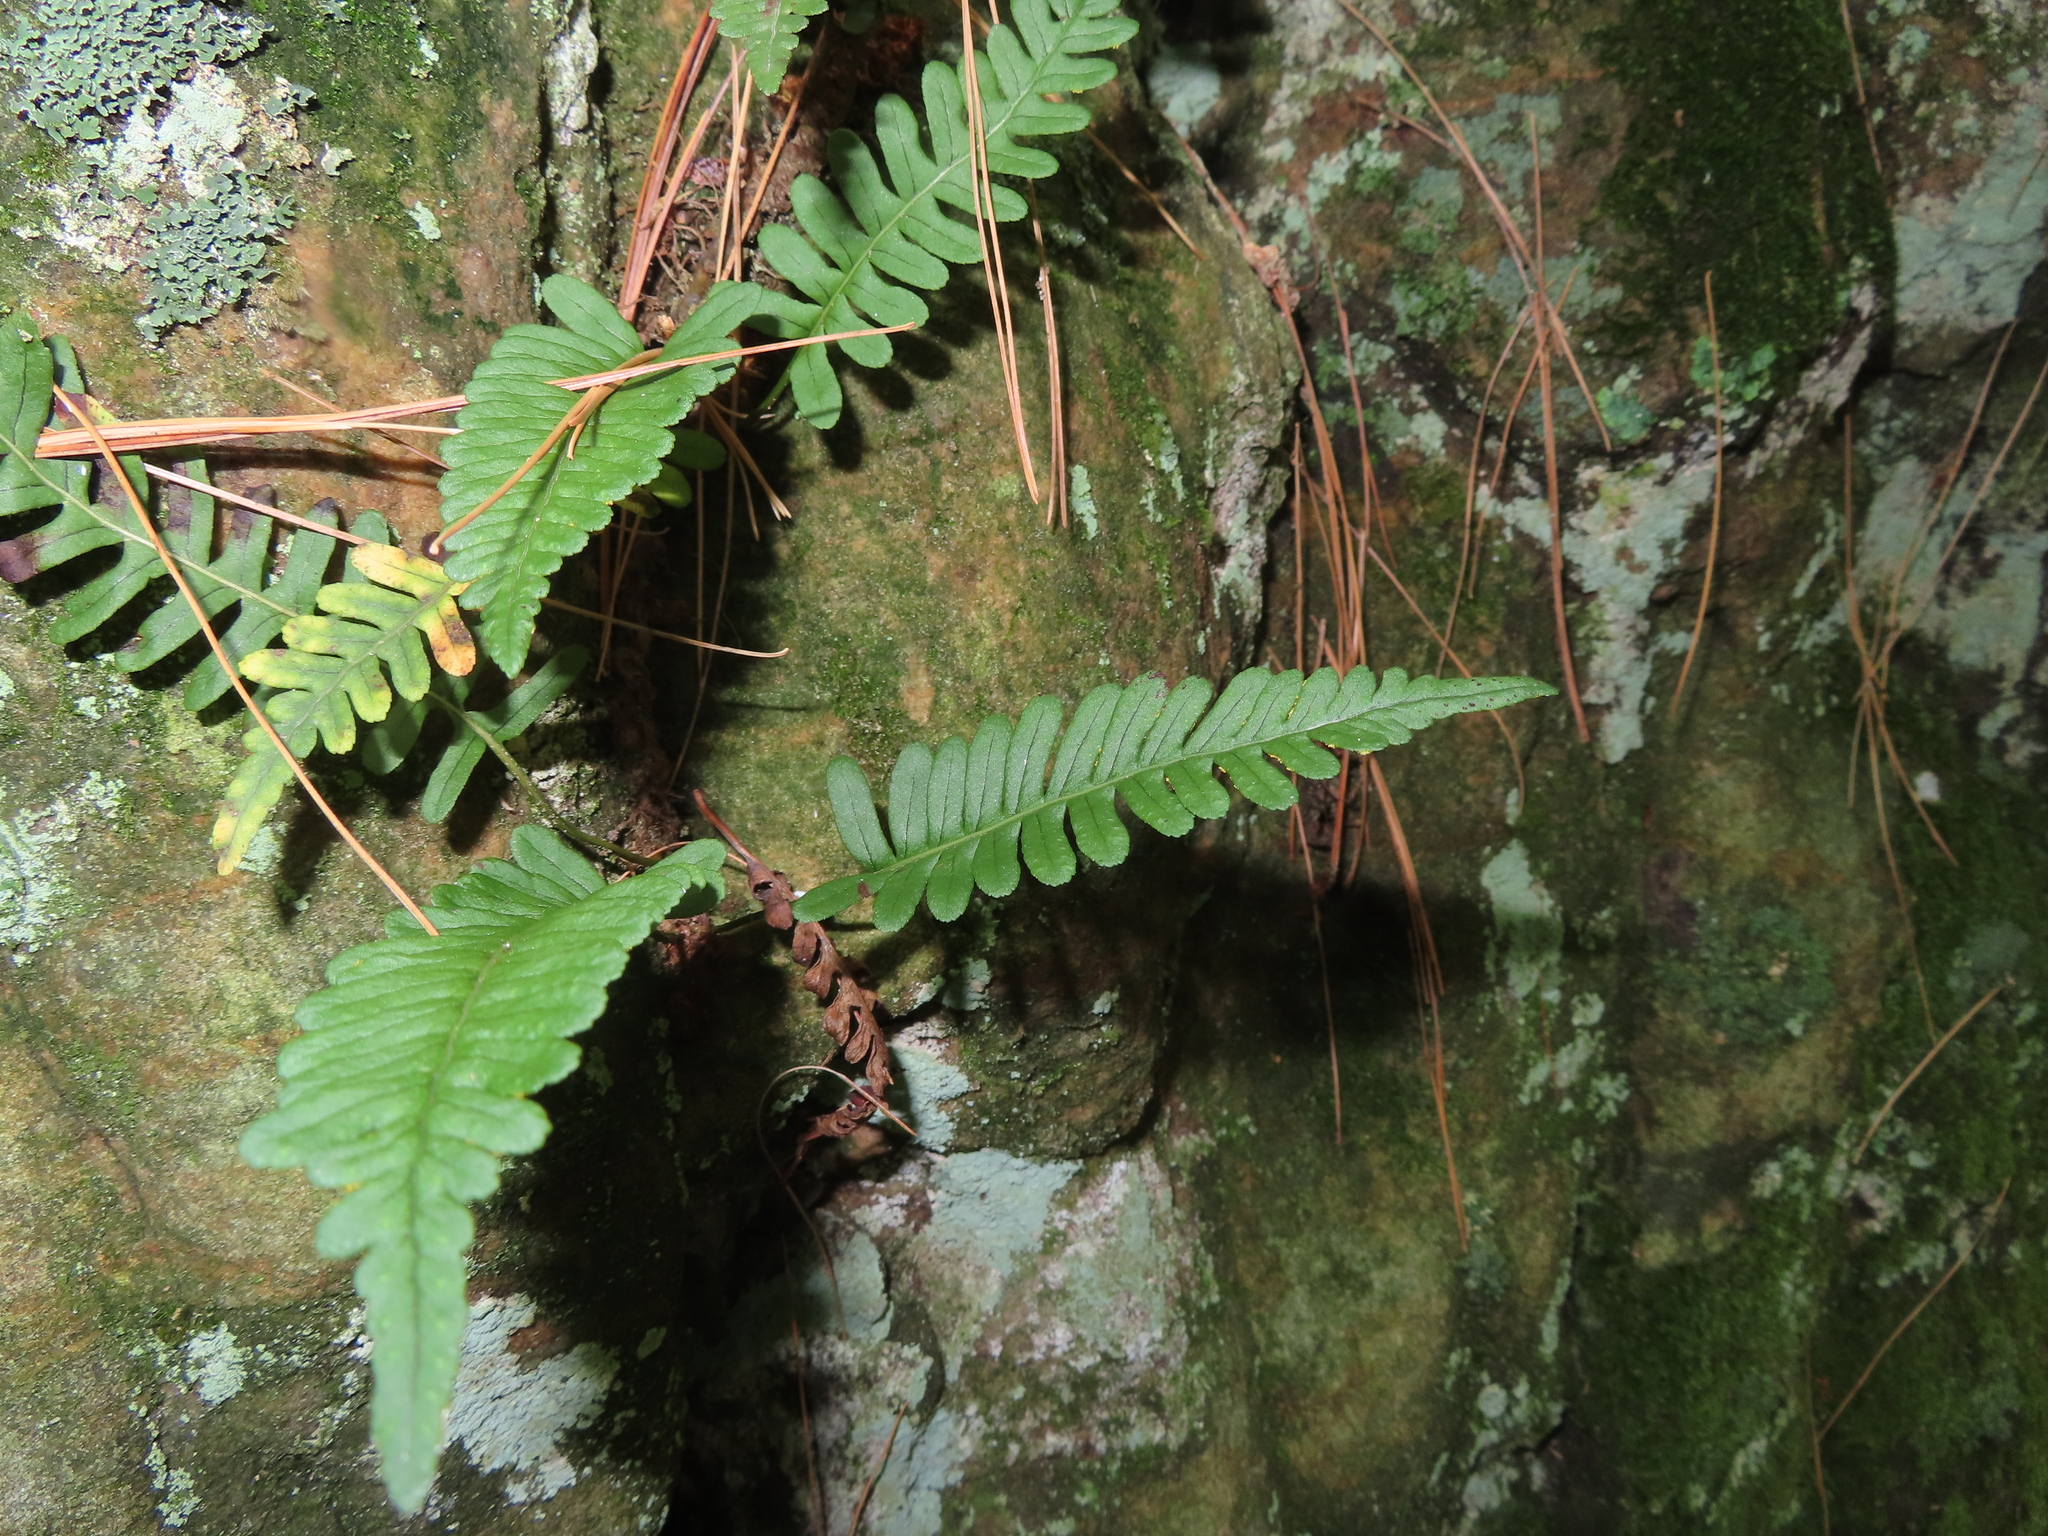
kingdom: Plantae
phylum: Tracheophyta
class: Polypodiopsida
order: Polypodiales
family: Polypodiaceae
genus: Polypodium
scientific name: Polypodium virginianum
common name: American wall fern
